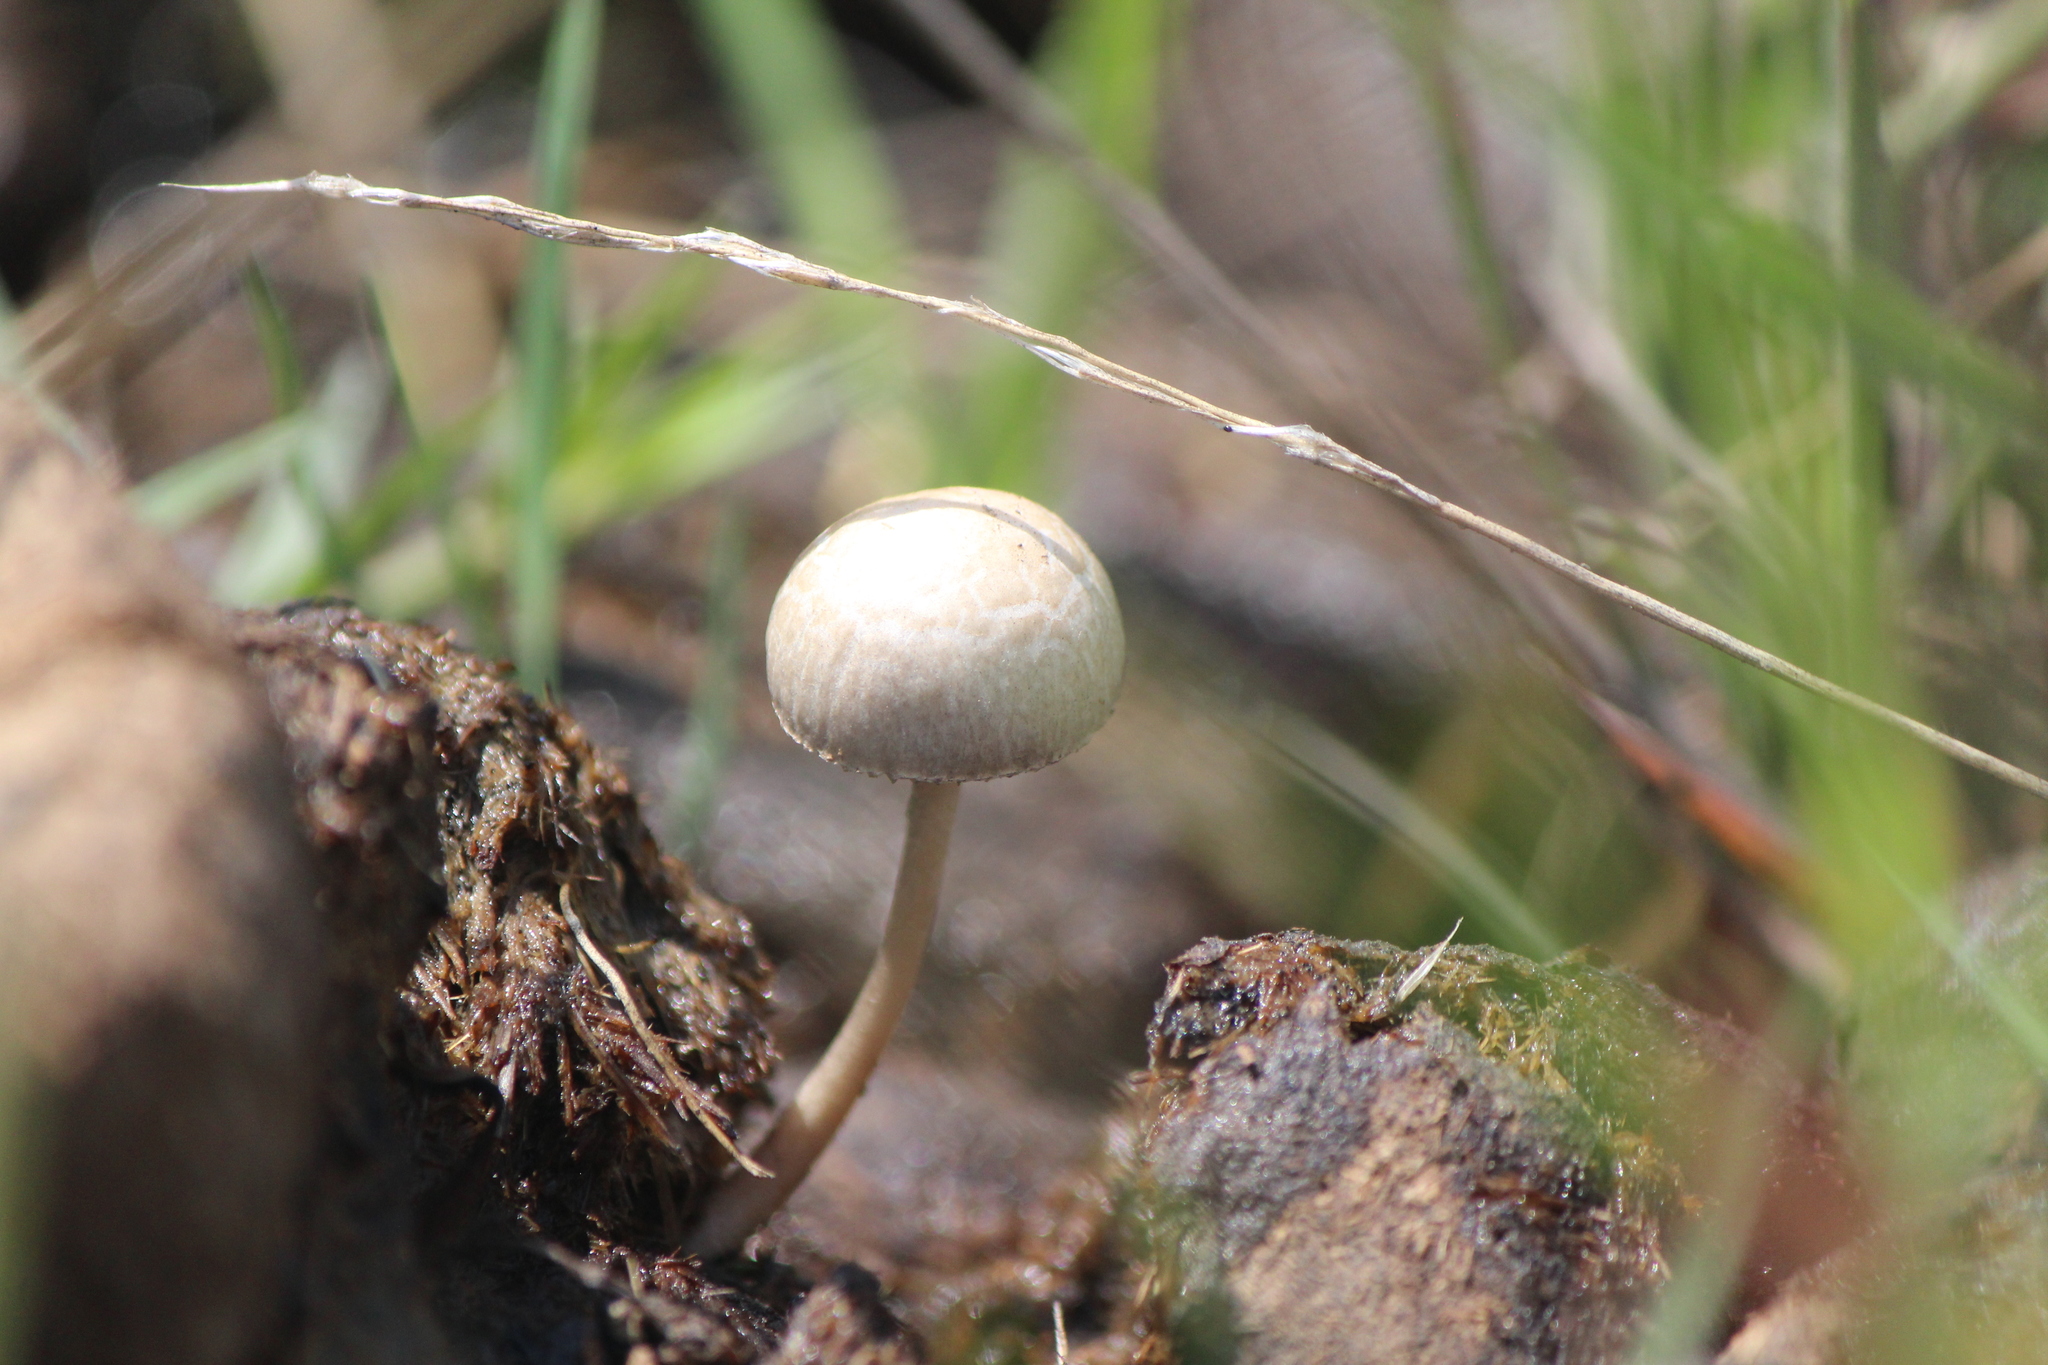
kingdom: Fungi
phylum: Basidiomycota
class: Agaricomycetes
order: Agaricales
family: Bolbitiaceae
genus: Panaeolus
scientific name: Panaeolus antillarum
